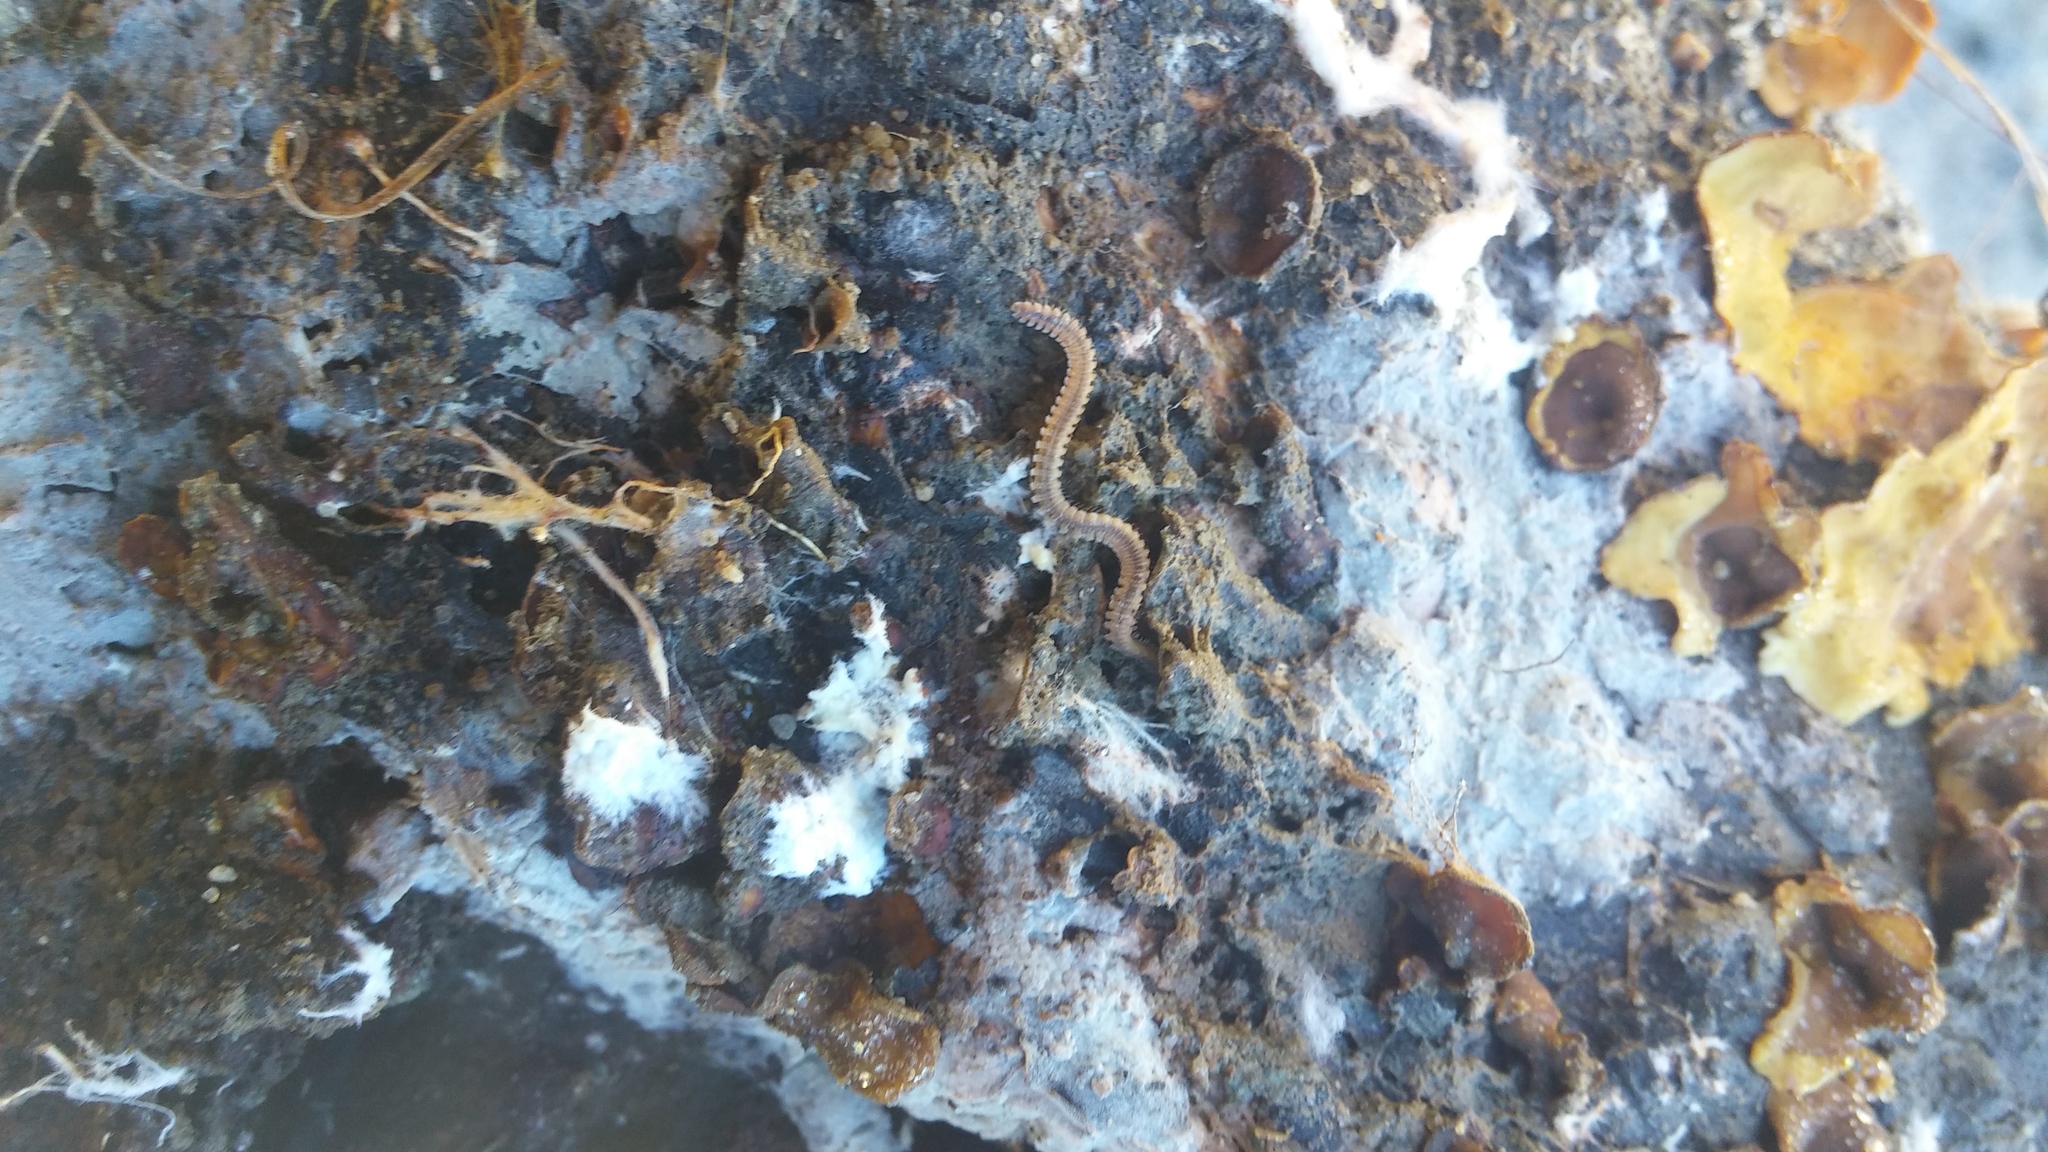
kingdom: Animalia
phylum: Arthropoda
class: Diplopoda
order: Platydesmida
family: Andrognathidae
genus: Gosodesmus
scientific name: Gosodesmus claremontus
